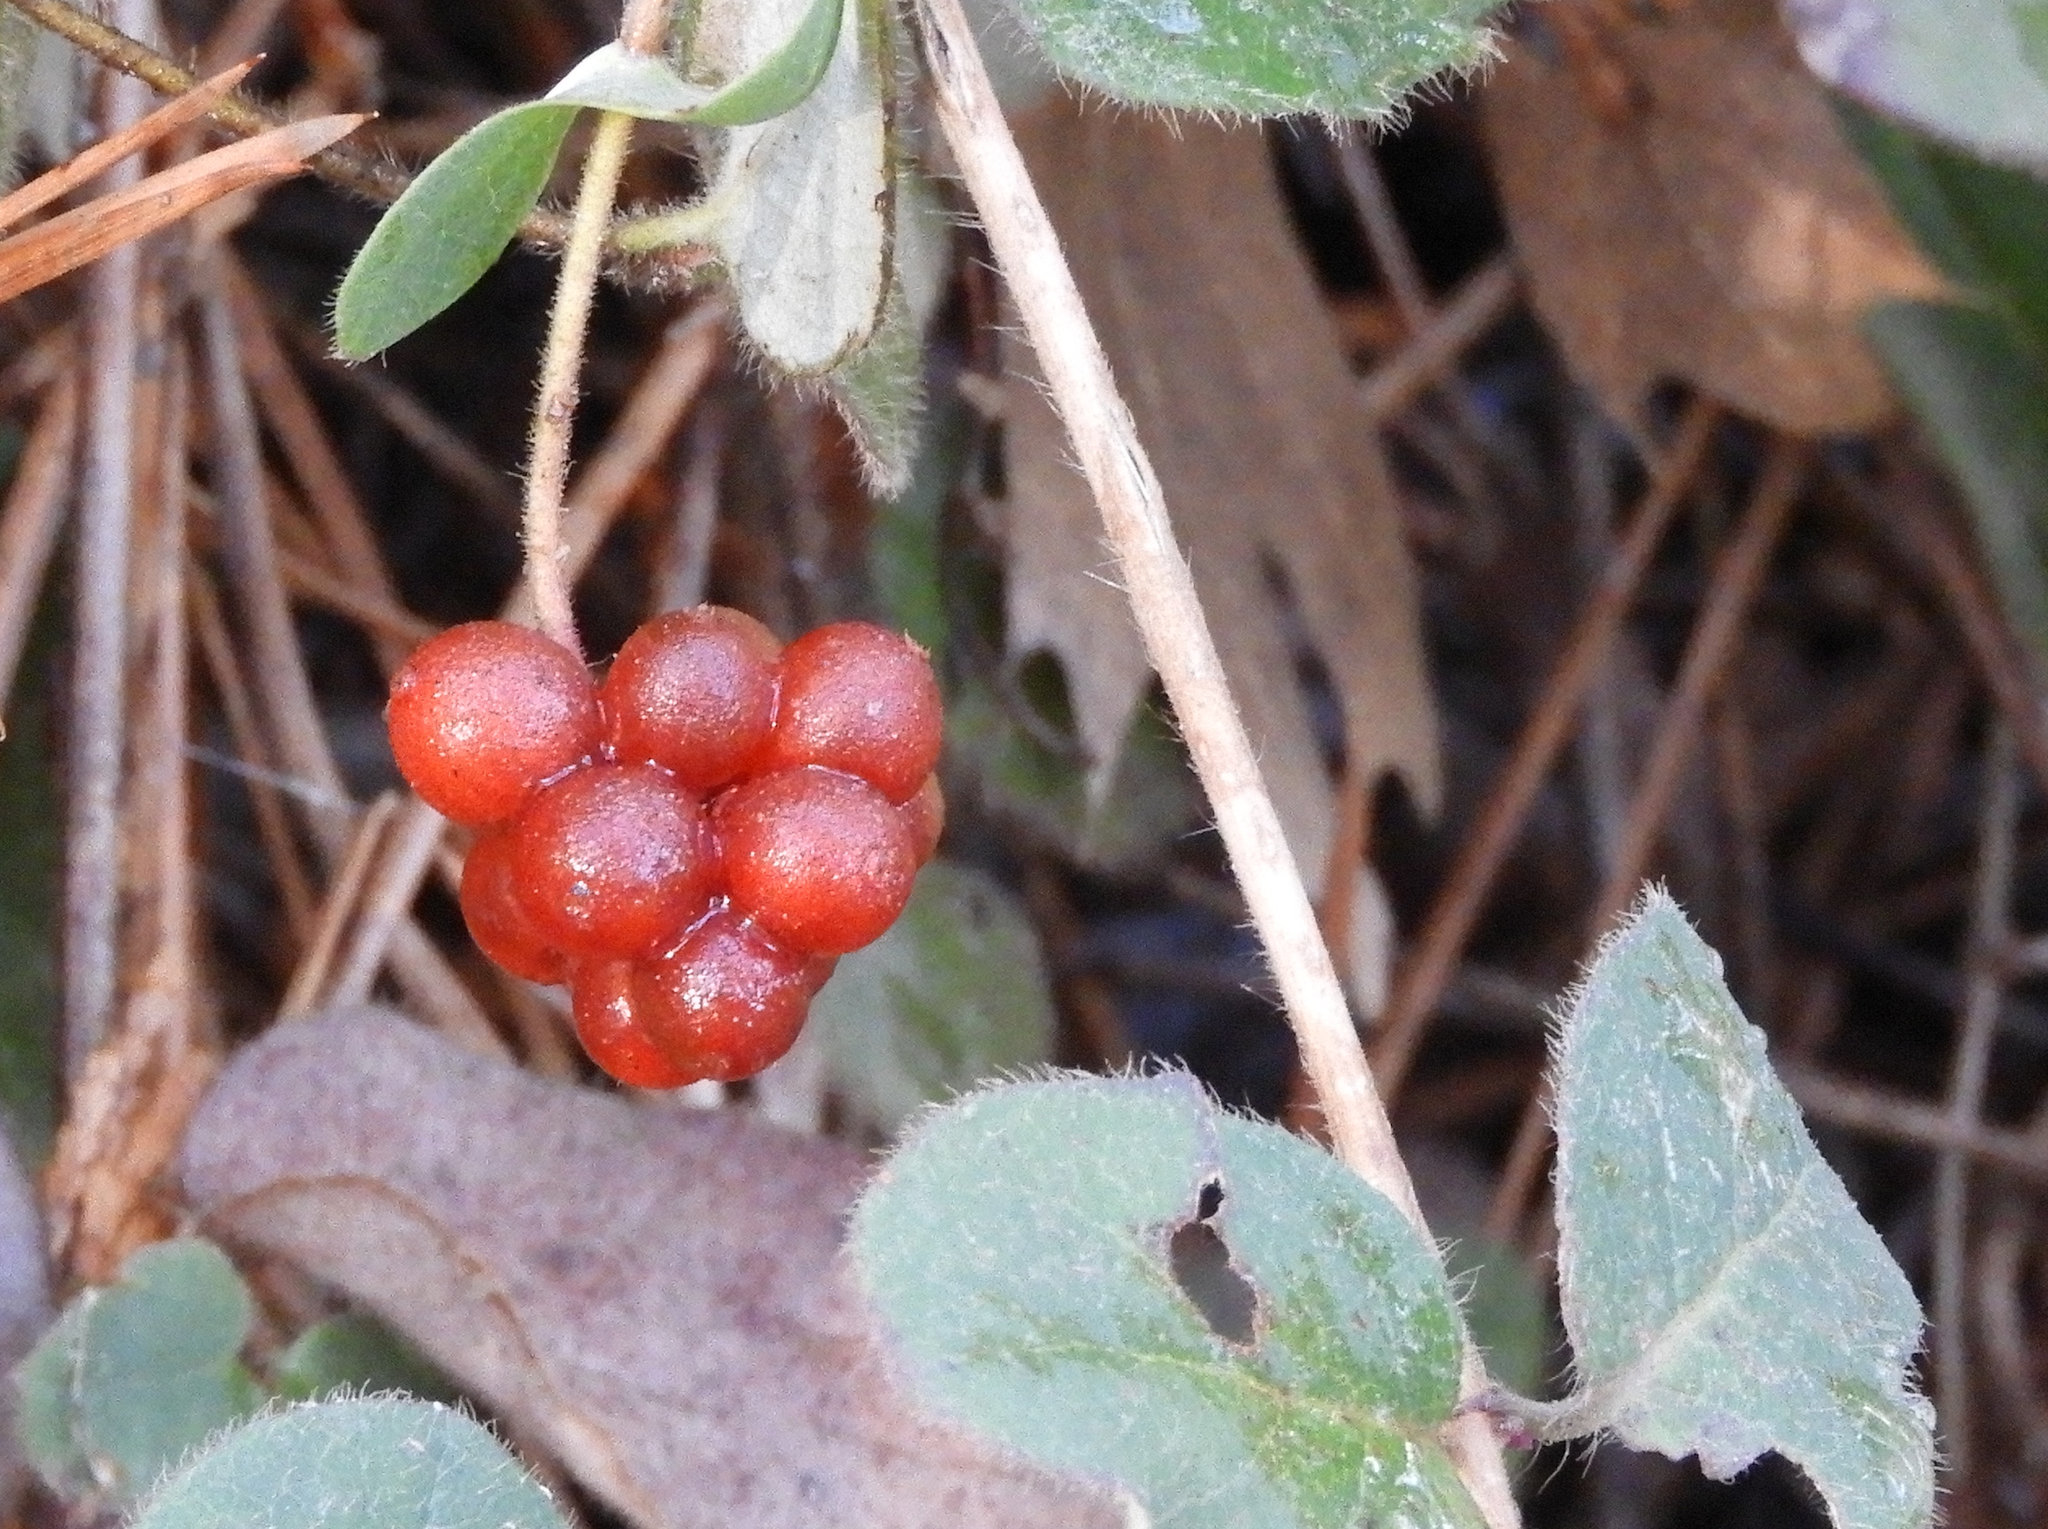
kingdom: Plantae
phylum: Tracheophyta
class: Magnoliopsida
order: Dipsacales
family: Caprifoliaceae
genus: Lonicera
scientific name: Lonicera hispidula
